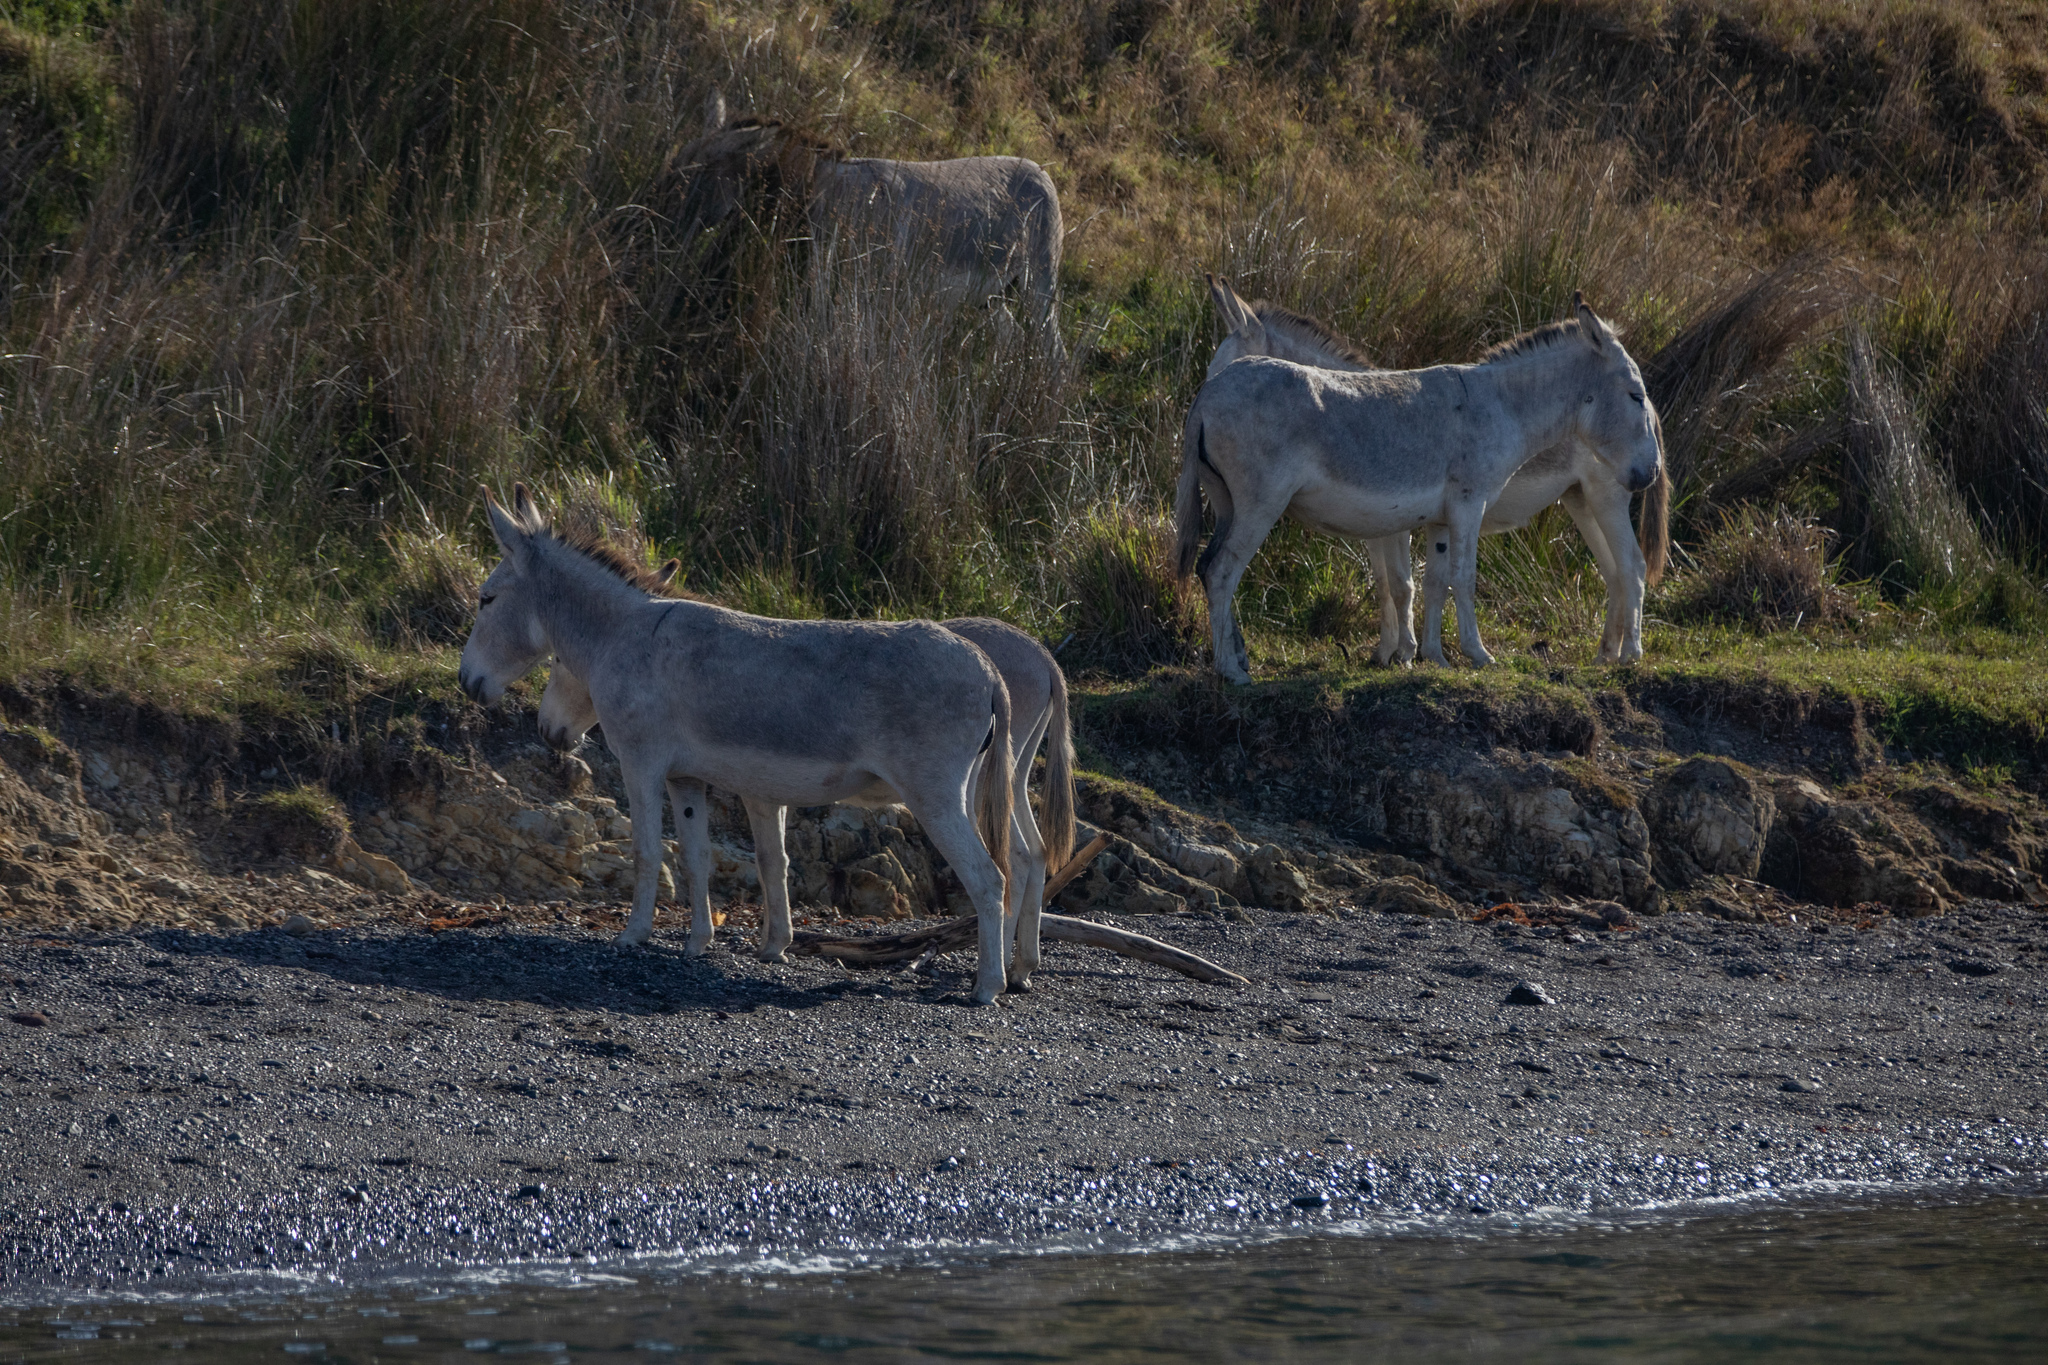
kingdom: Animalia
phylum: Chordata
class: Mammalia
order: Perissodactyla
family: Equidae
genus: Equus
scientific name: Equus asinus
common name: Ass
